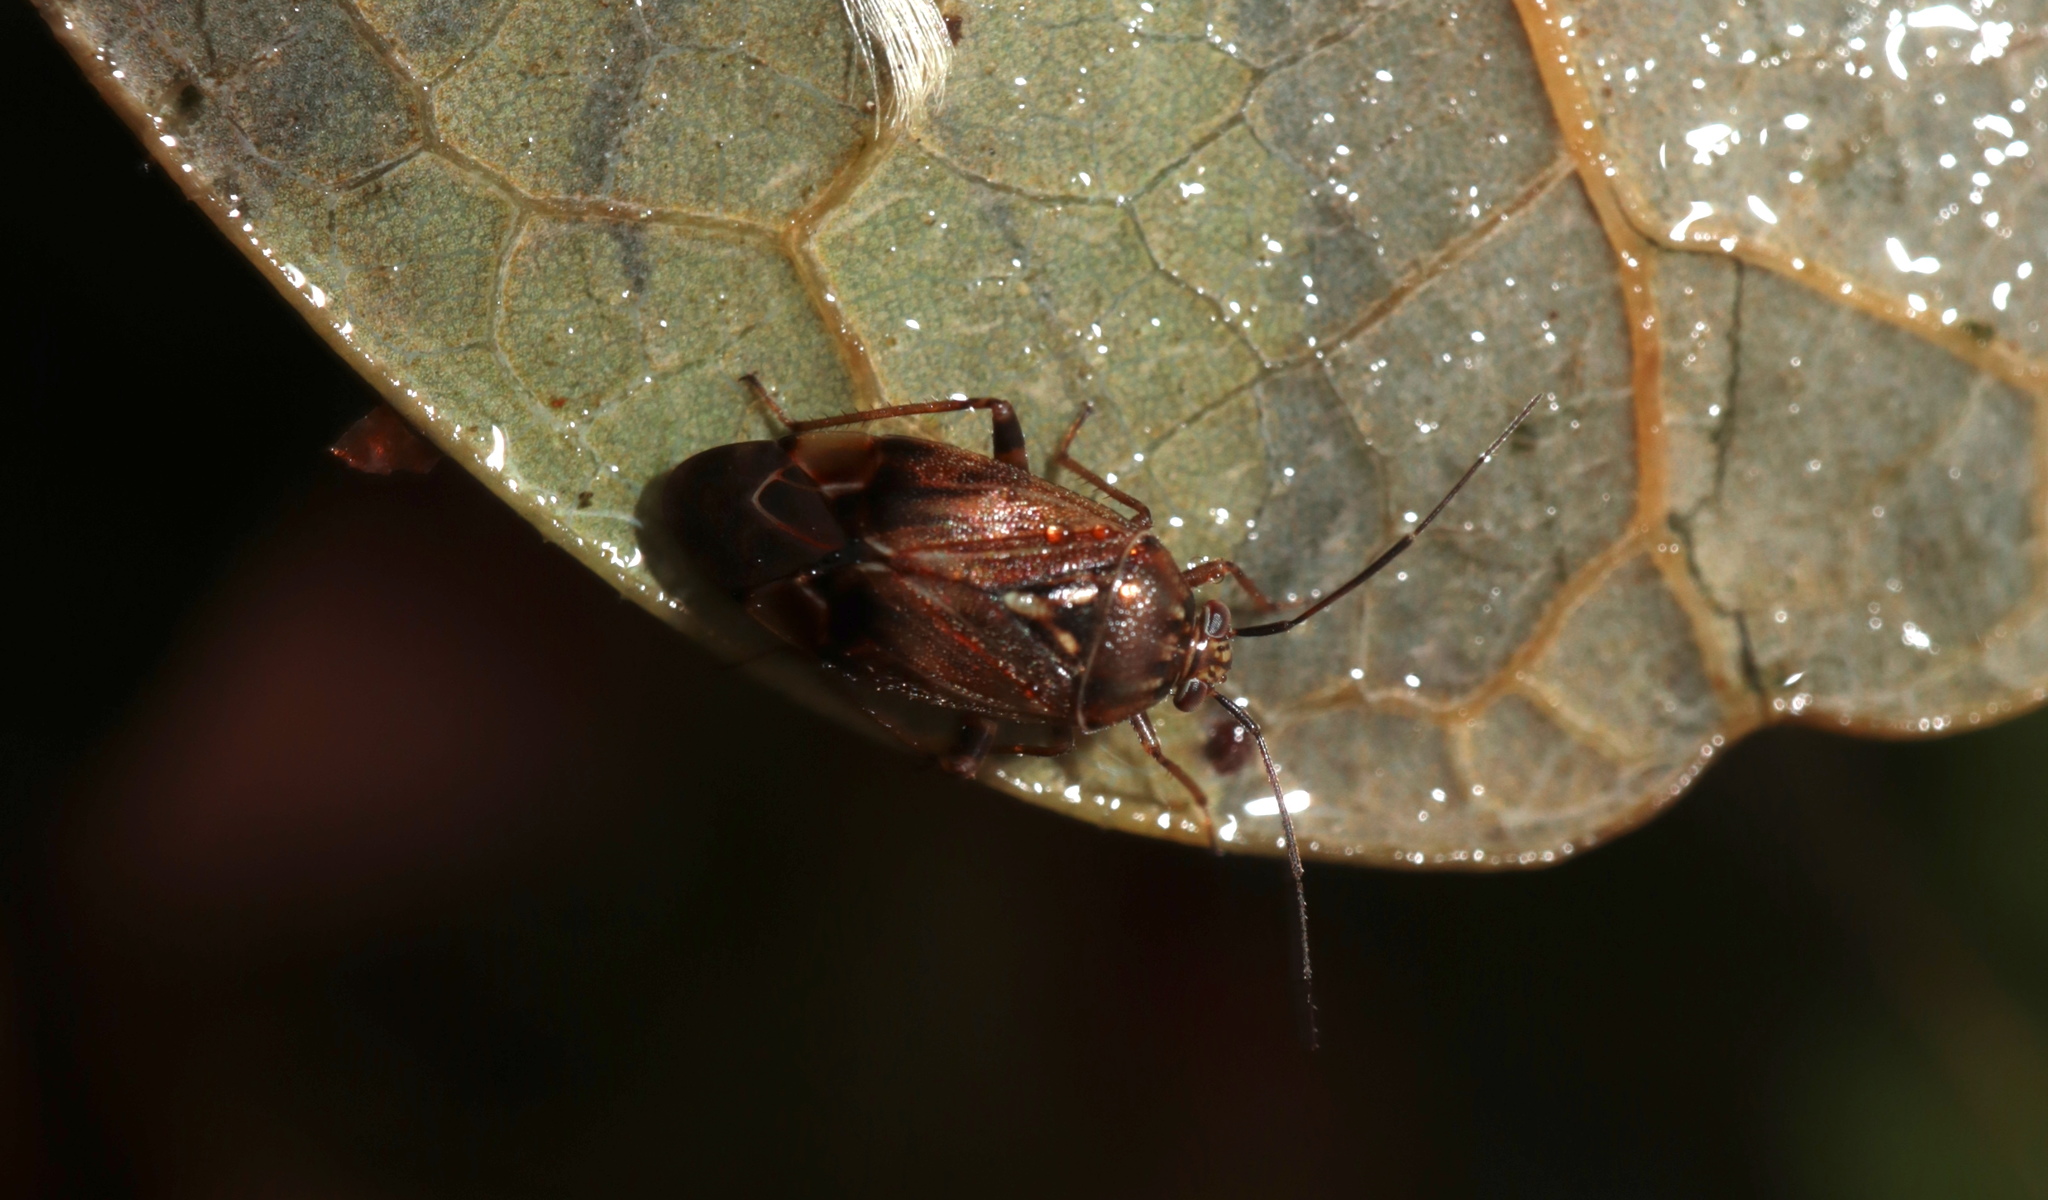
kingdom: Animalia
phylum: Arthropoda
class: Insecta
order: Hemiptera
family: Miridae
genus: Lygus
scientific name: Lygus lineolaris
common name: North american tarnished plant bug
